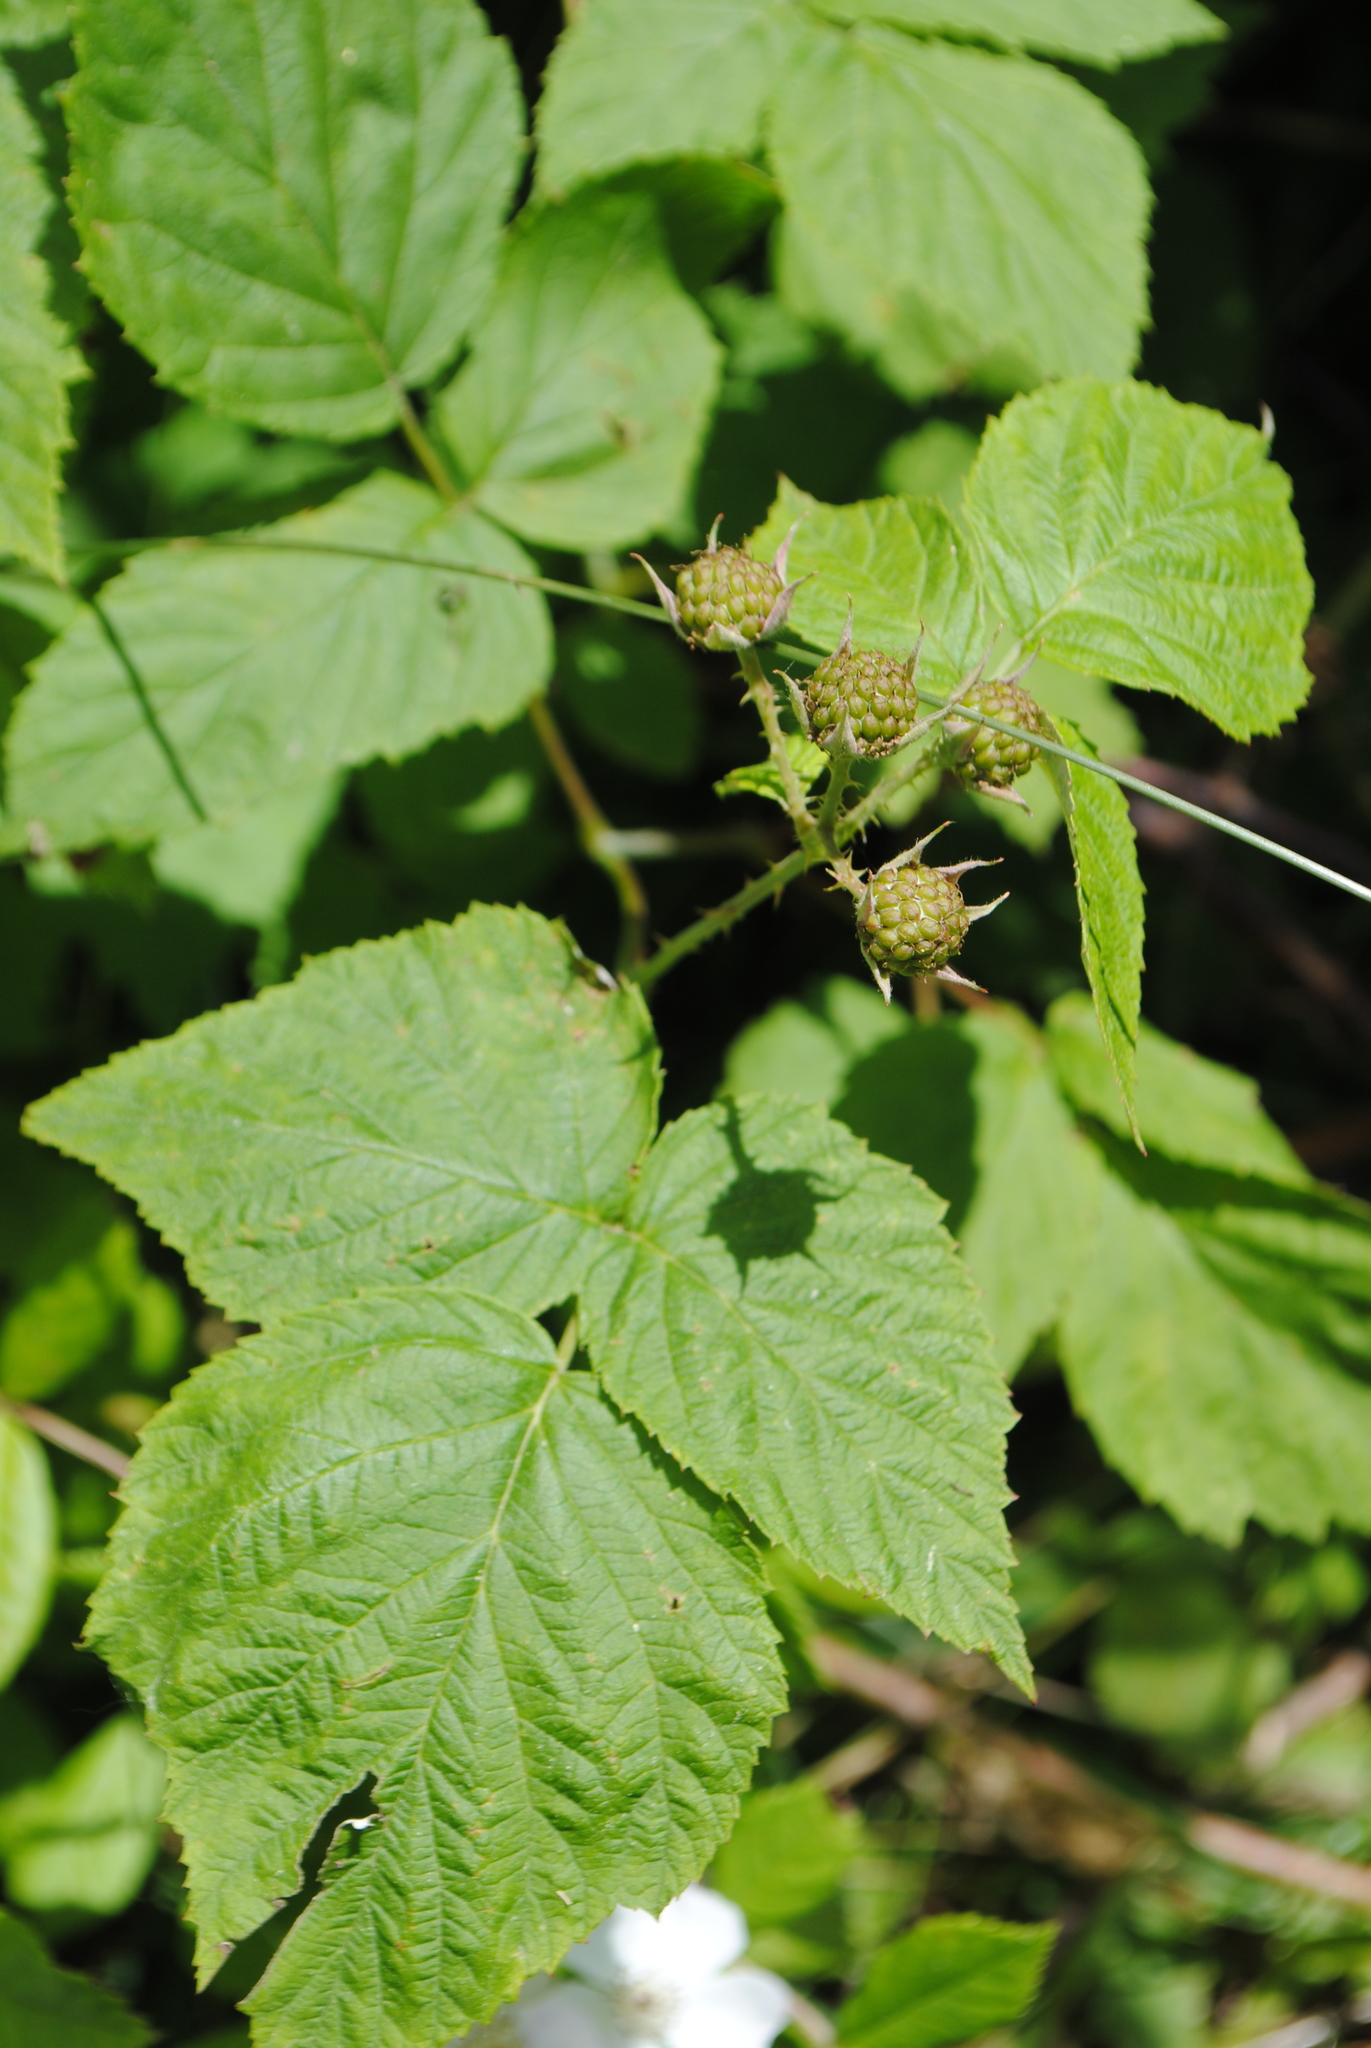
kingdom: Plantae
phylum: Tracheophyta
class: Magnoliopsida
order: Rosales
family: Rosaceae
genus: Rubus
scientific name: Rubus occidentalis
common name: Black raspberry
